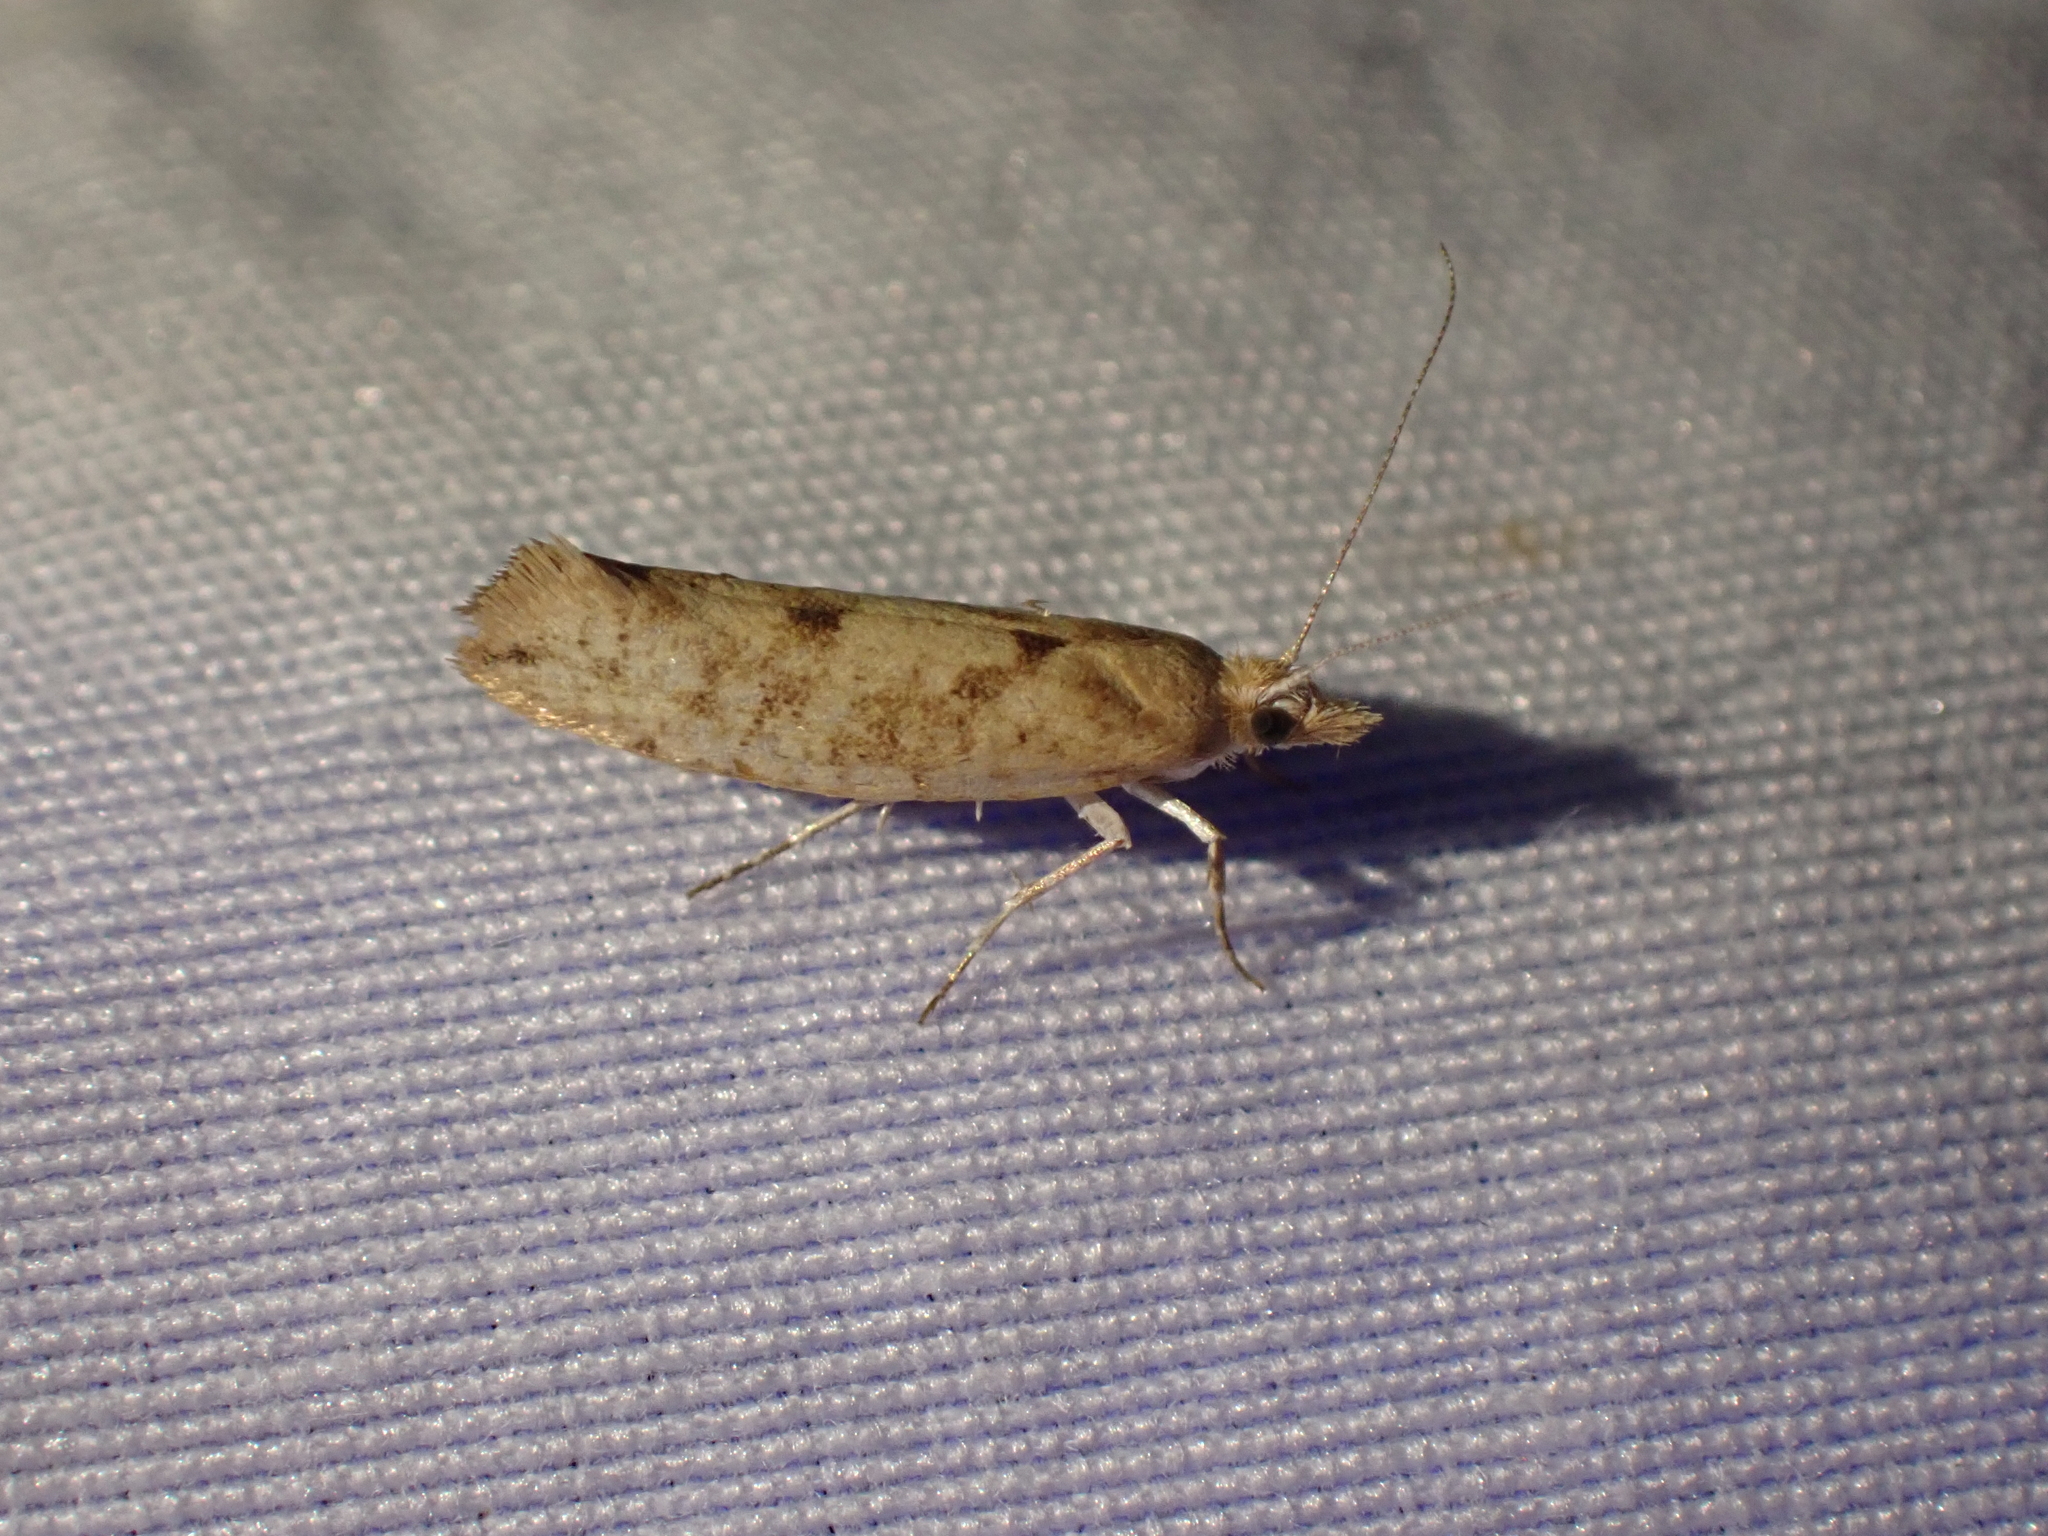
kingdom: Animalia
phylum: Arthropoda
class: Insecta
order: Lepidoptera
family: Ypsolophidae
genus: Ypsolopha
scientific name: Ypsolopha cervella
